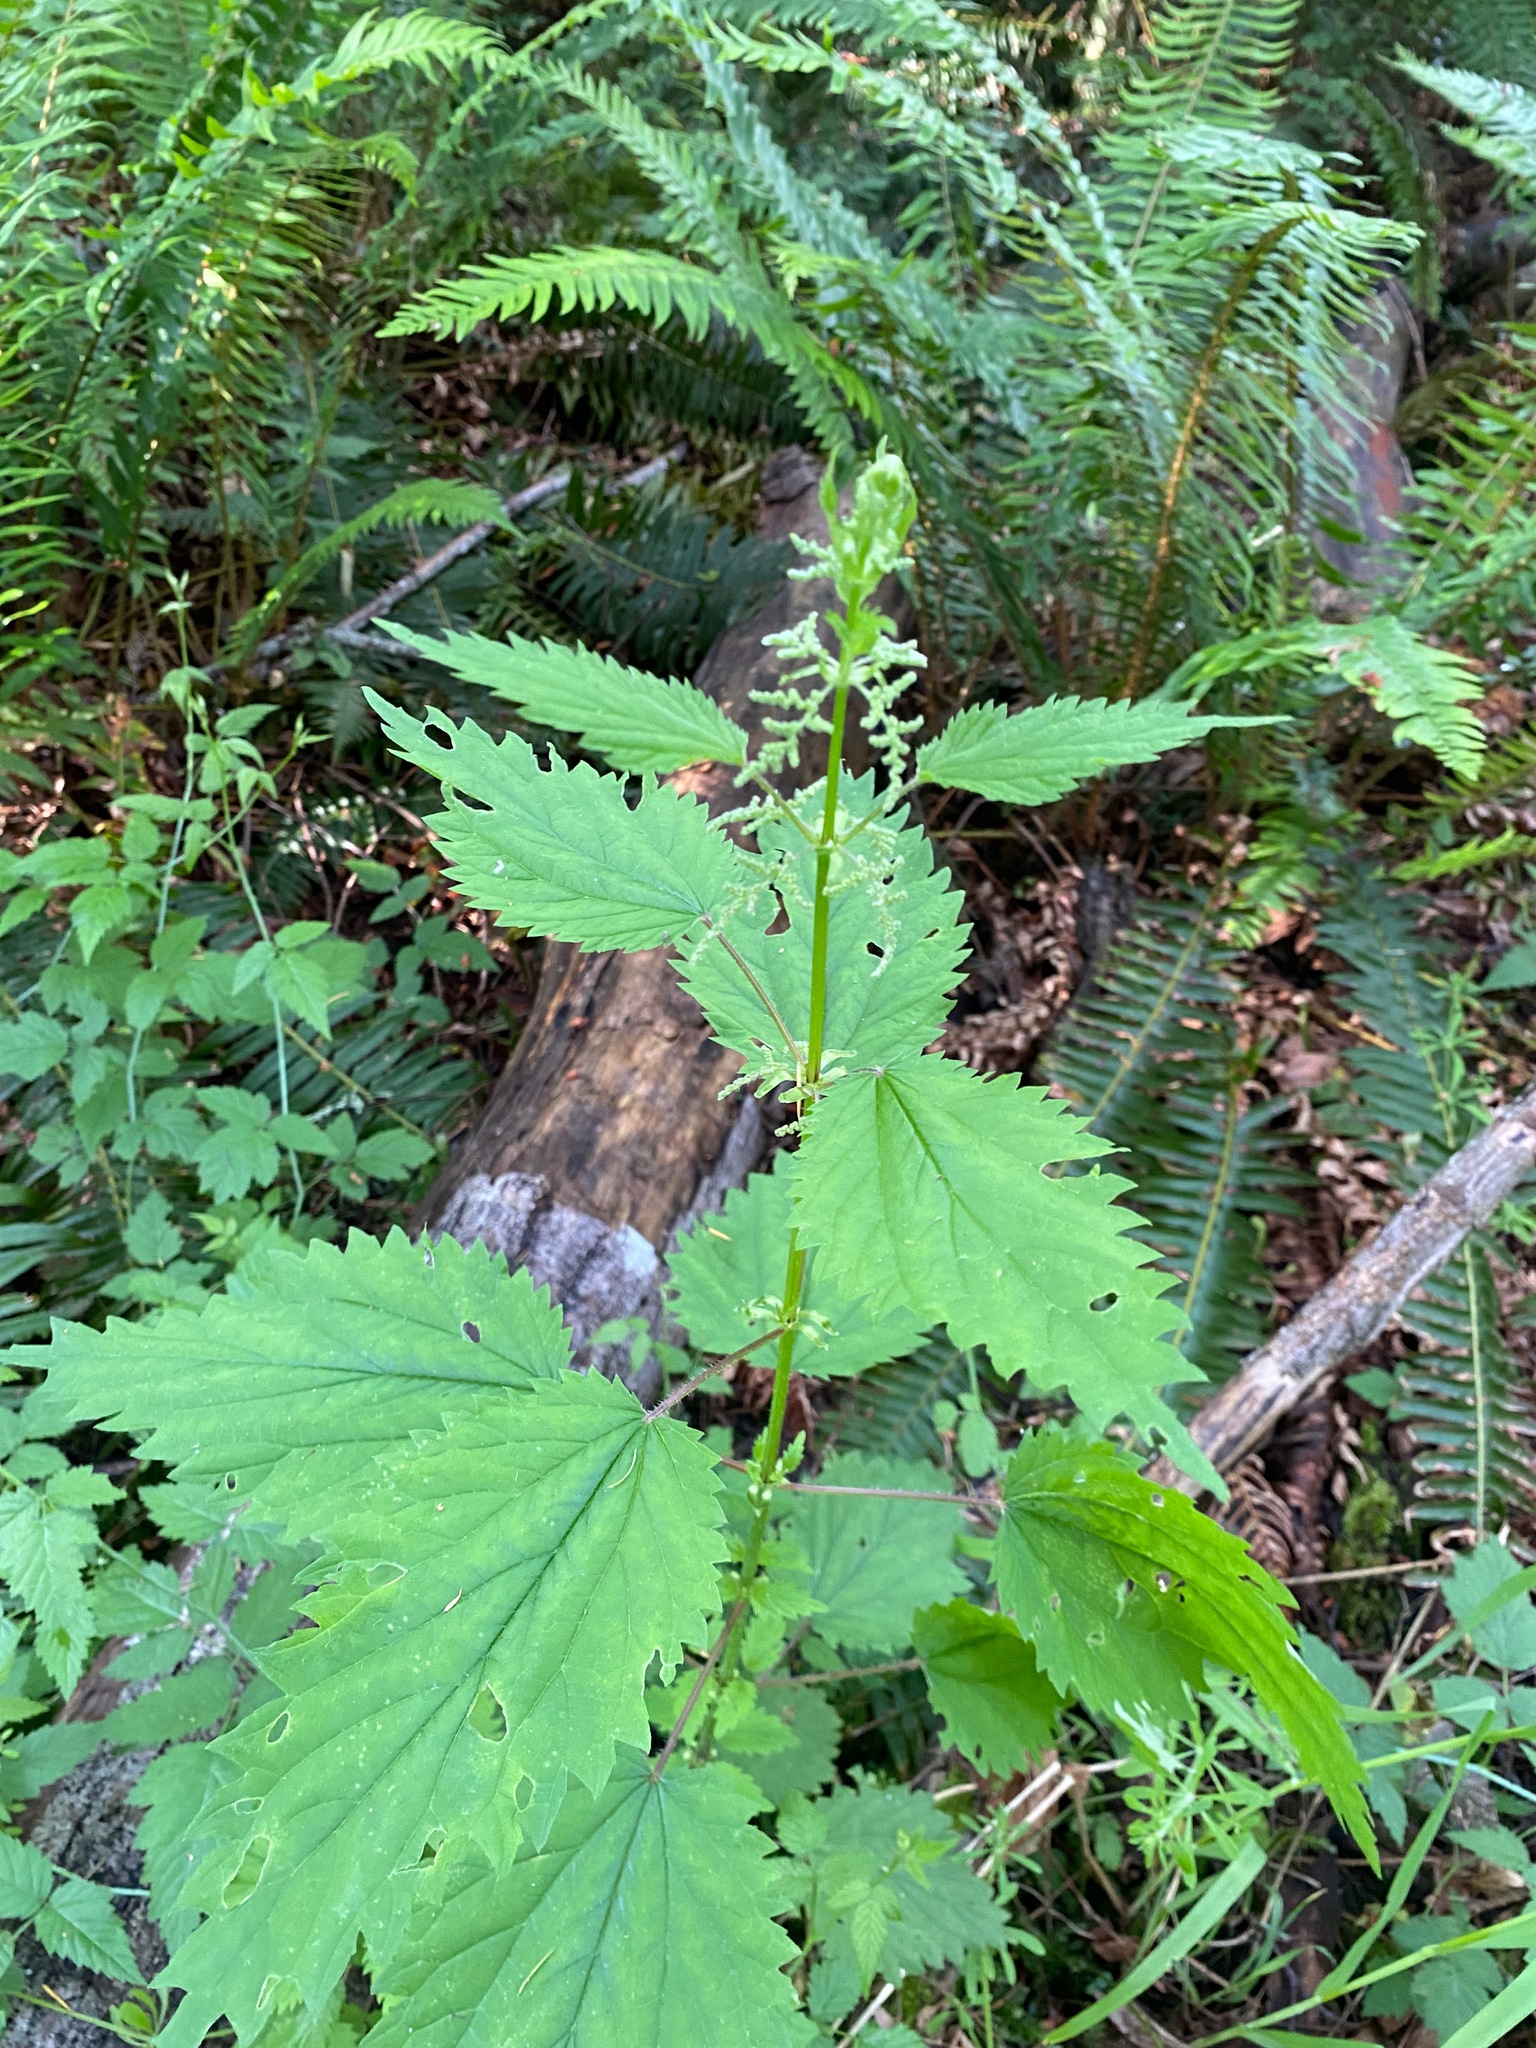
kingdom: Plantae
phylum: Tracheophyta
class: Magnoliopsida
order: Rosales
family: Urticaceae
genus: Urtica
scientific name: Urtica dioica
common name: Common nettle
